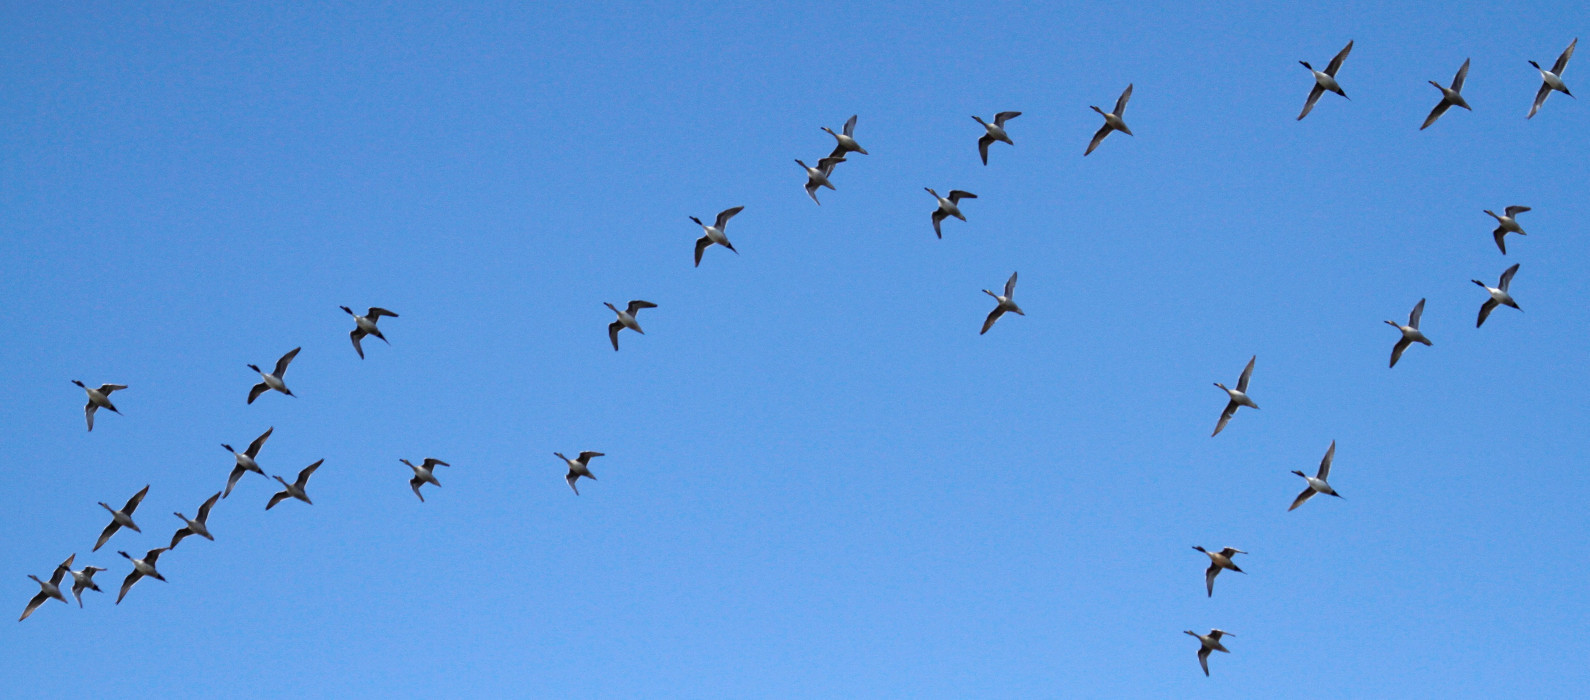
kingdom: Animalia
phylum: Chordata
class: Aves
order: Anseriformes
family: Anatidae
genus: Anas
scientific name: Anas acuta
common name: Northern pintail
